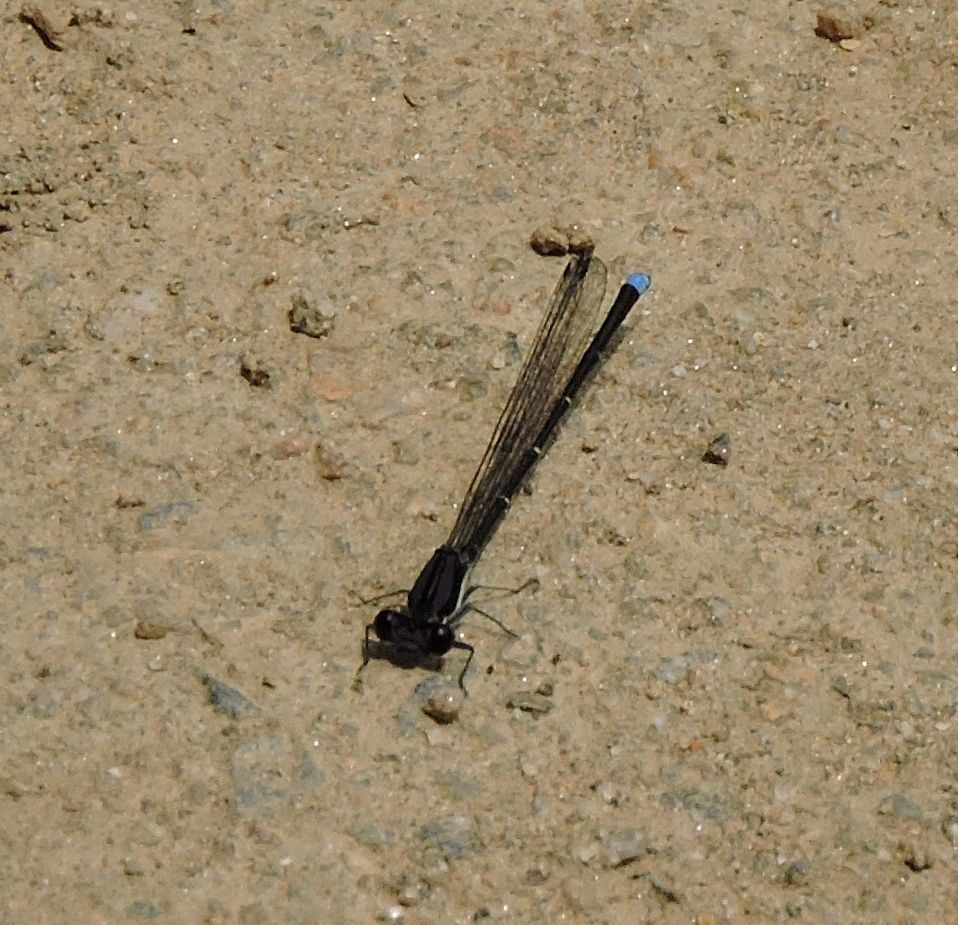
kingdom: Animalia
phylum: Arthropoda
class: Insecta
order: Odonata
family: Coenagrionidae
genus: Argia
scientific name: Argia tibialis
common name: Blue-tipped dancer
